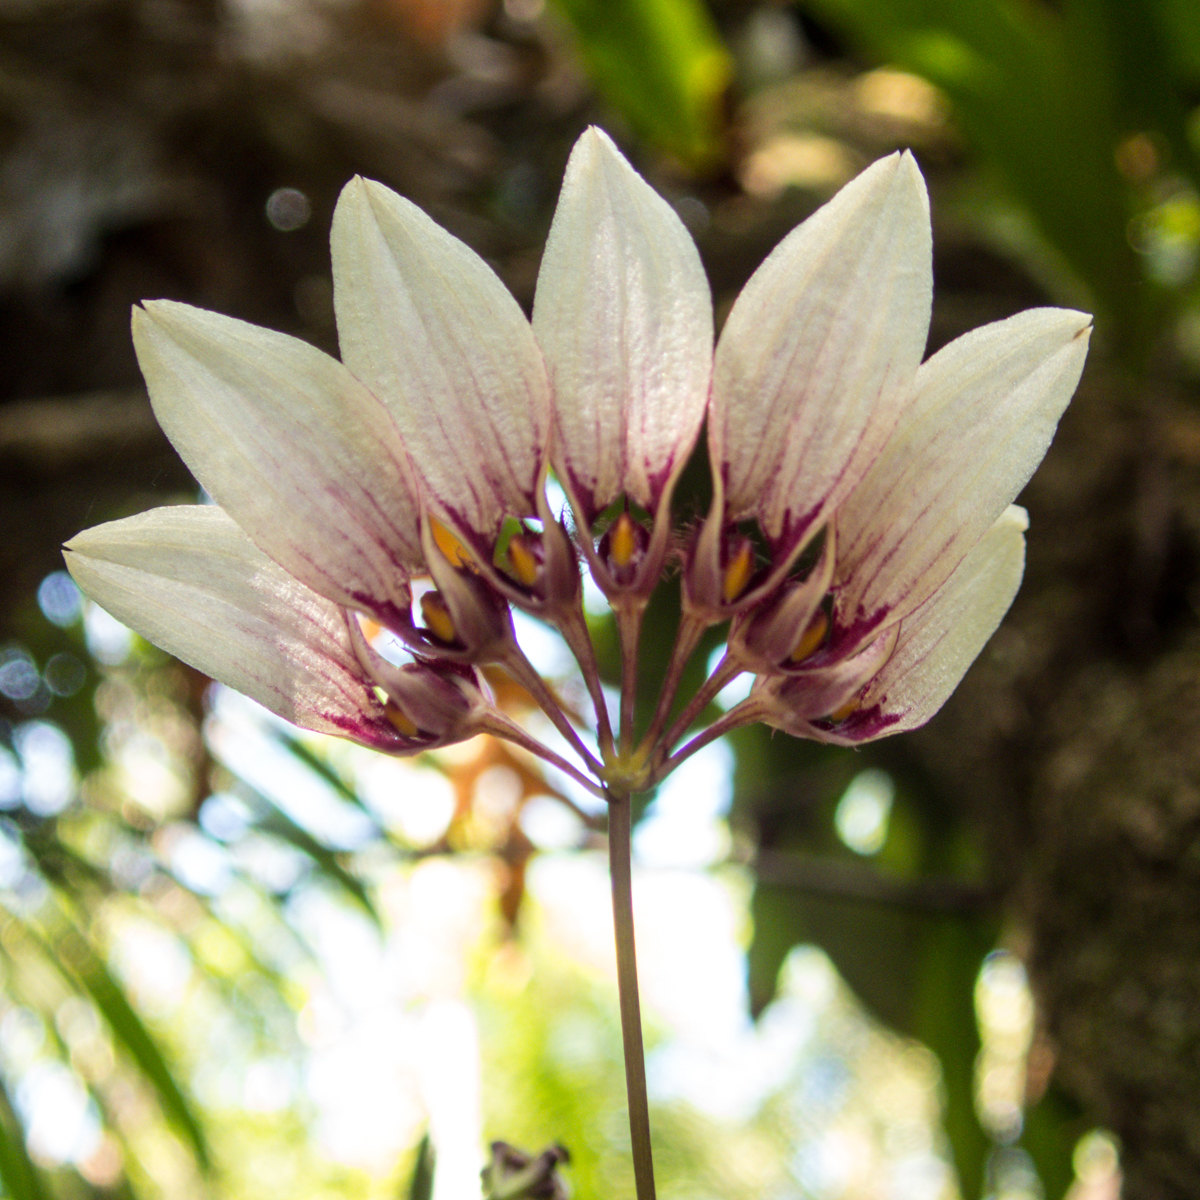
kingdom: Plantae
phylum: Tracheophyta
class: Liliopsida
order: Asparagales
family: Orchidaceae
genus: Bulbophyllum
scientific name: Bulbophyllum lepidum
